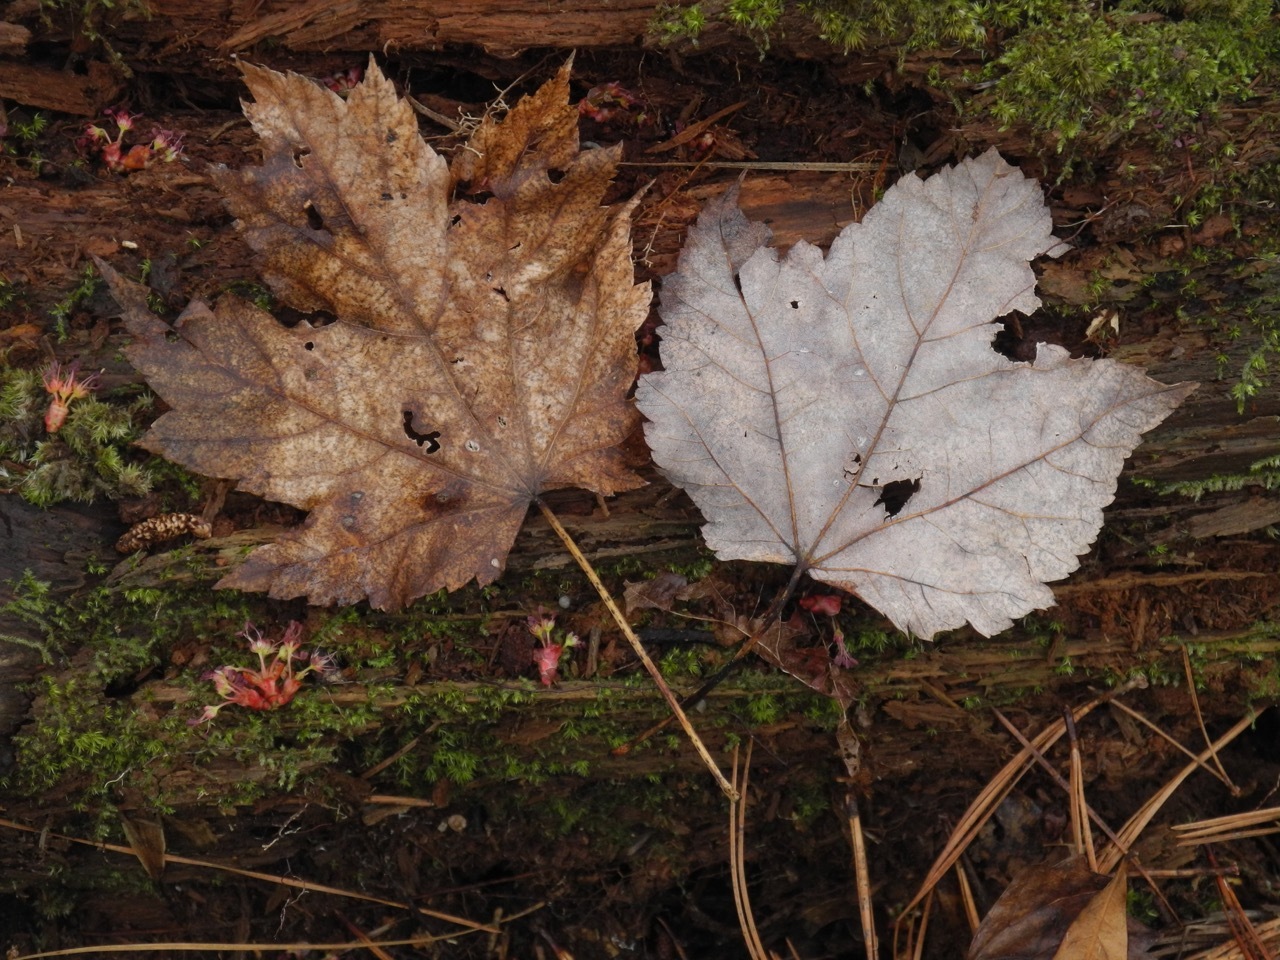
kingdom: Plantae
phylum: Tracheophyta
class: Magnoliopsida
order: Sapindales
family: Sapindaceae
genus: Acer
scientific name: Acer rubrum
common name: Red maple
